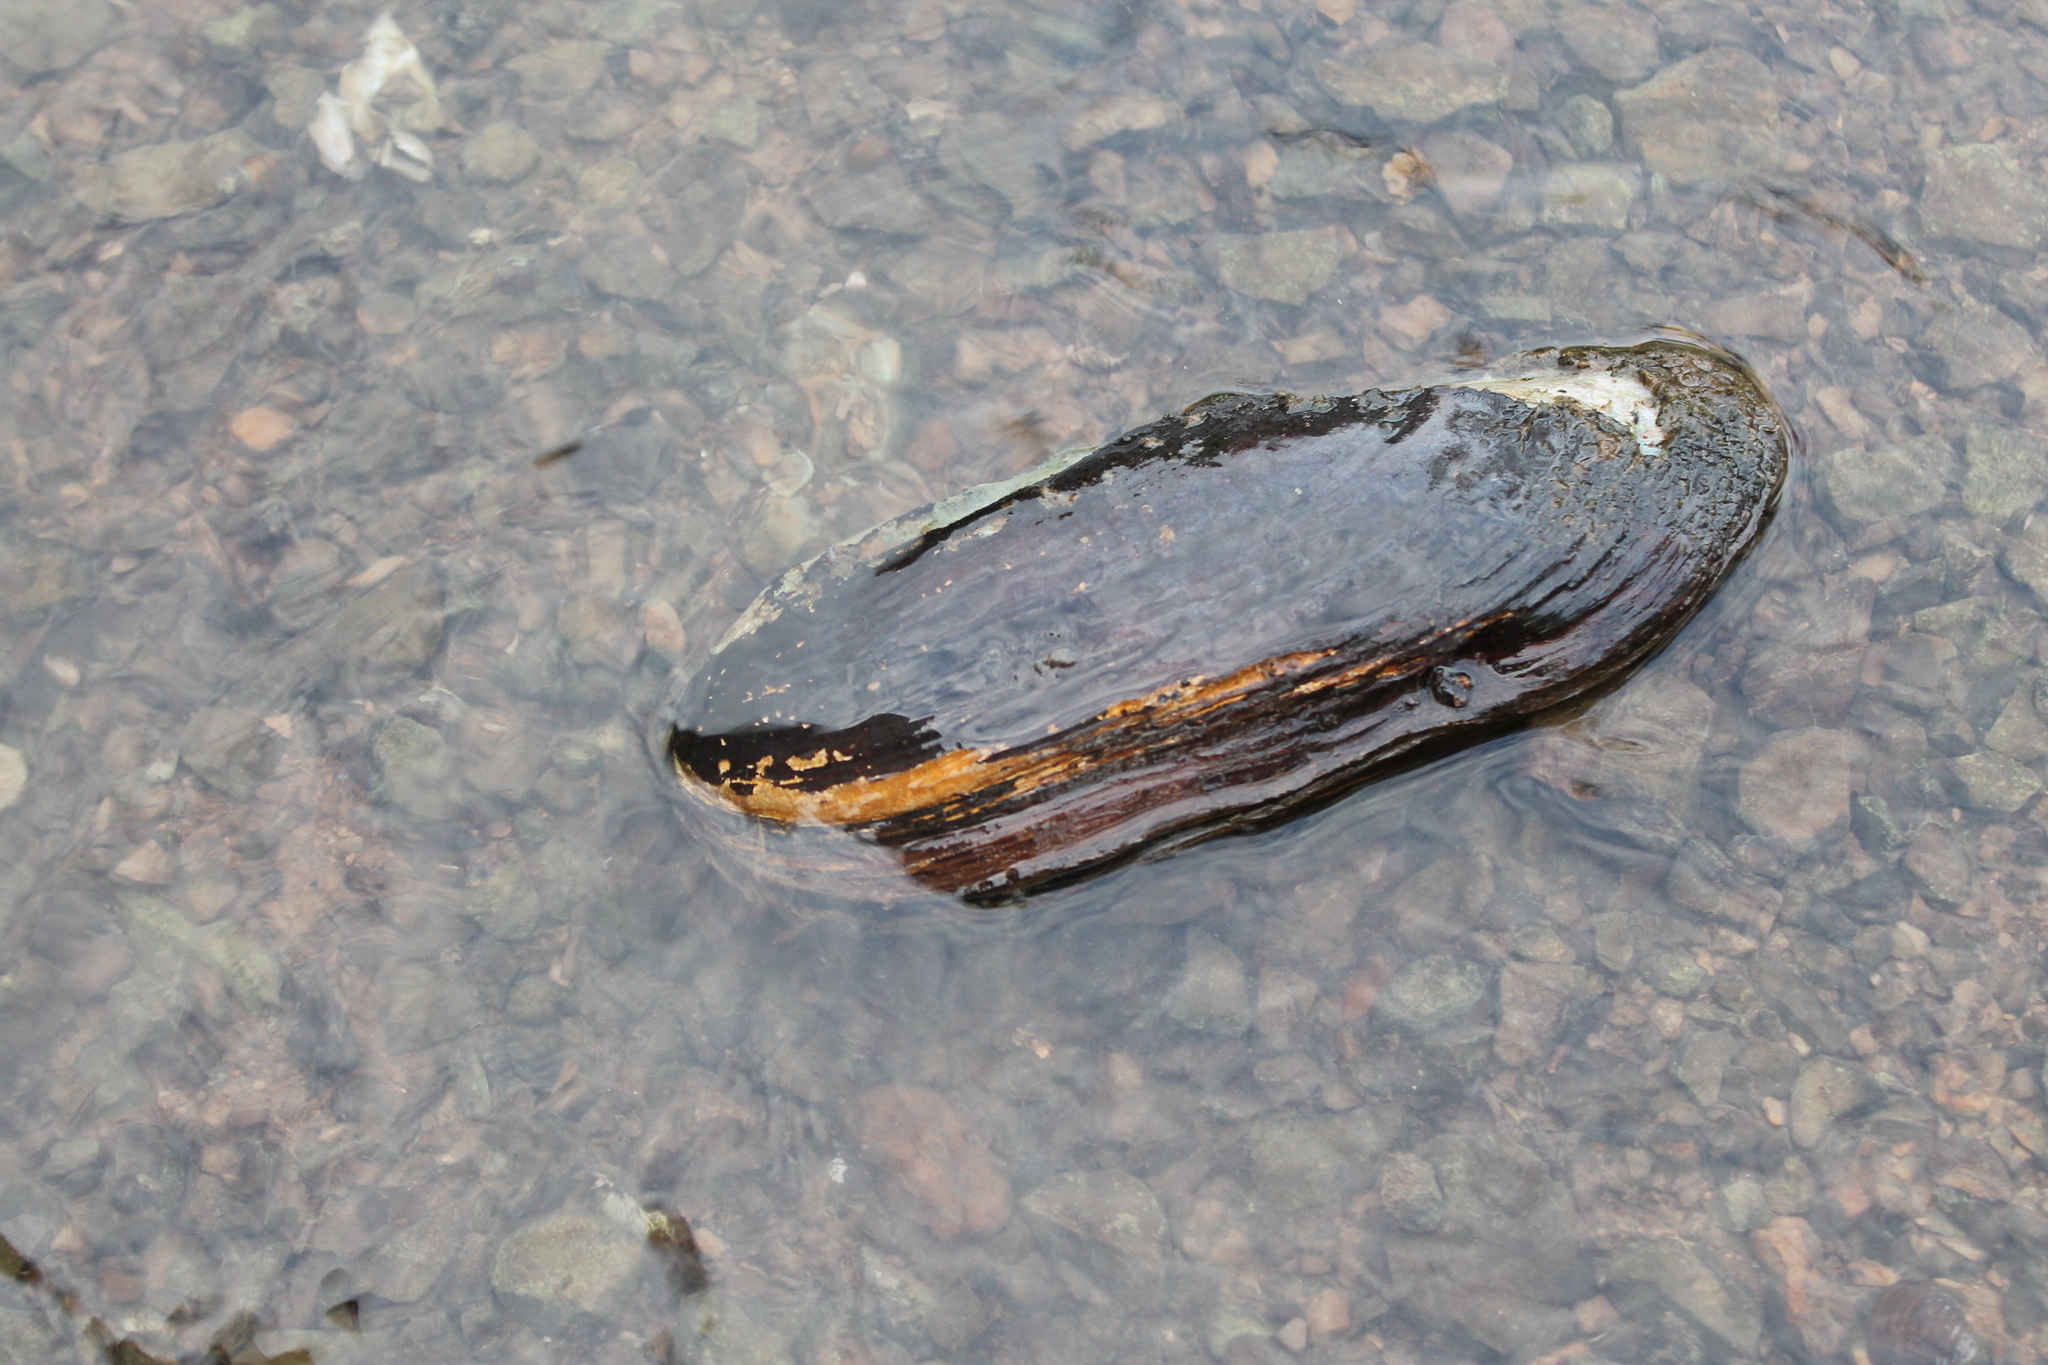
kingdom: Animalia
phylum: Mollusca
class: Bivalvia
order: Unionida
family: Unionidae
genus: Ligumia
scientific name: Ligumia recta
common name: Black sandshell
